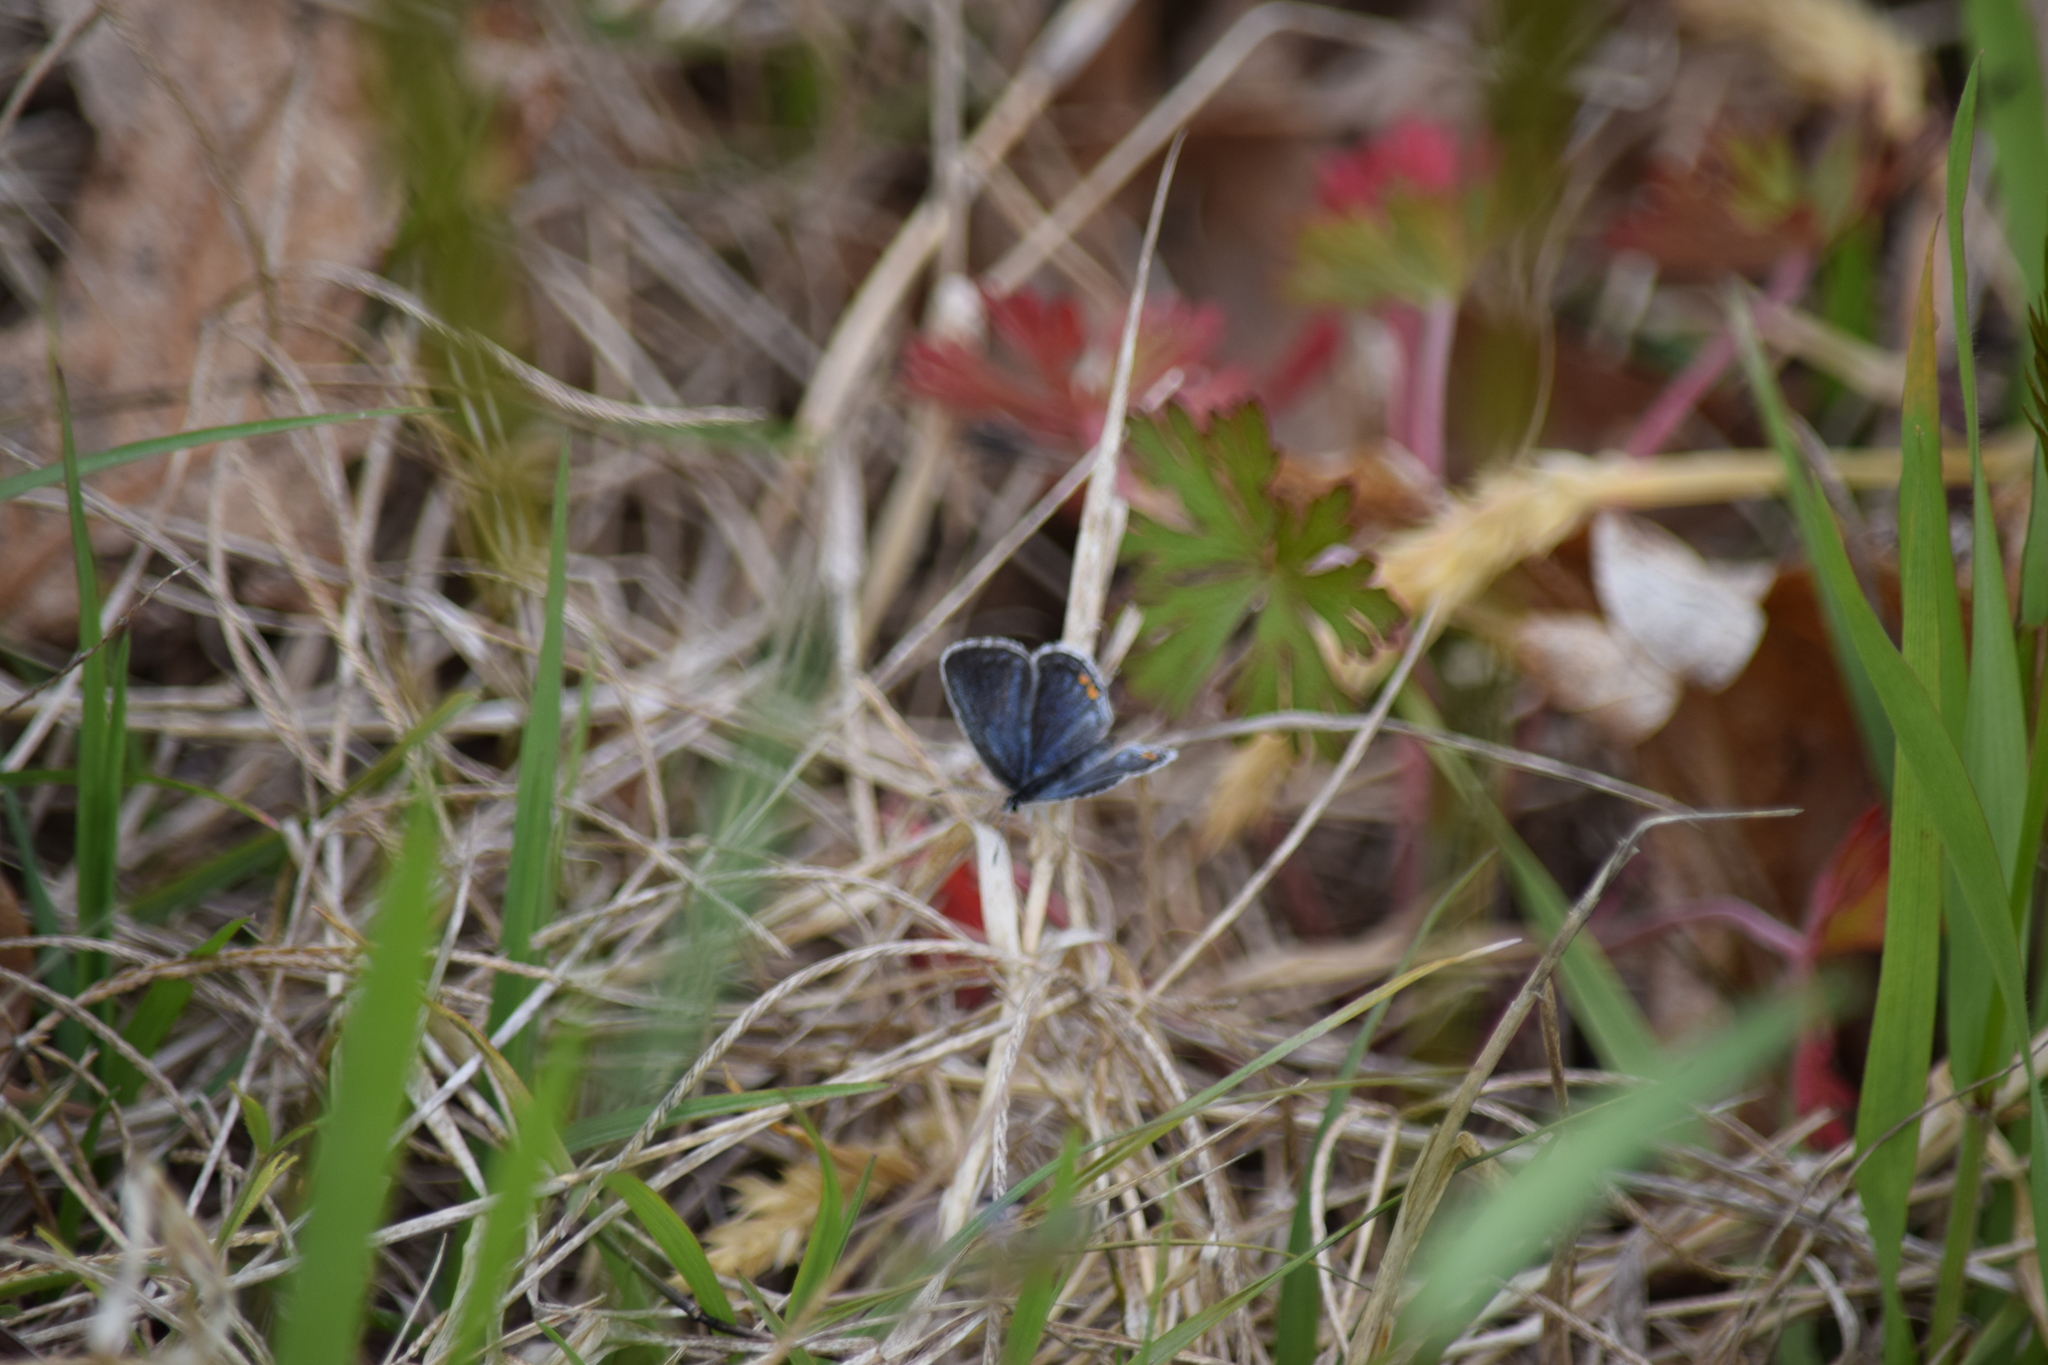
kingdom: Animalia
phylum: Arthropoda
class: Insecta
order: Lepidoptera
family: Lycaenidae
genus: Elkalyce
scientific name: Elkalyce comyntas
